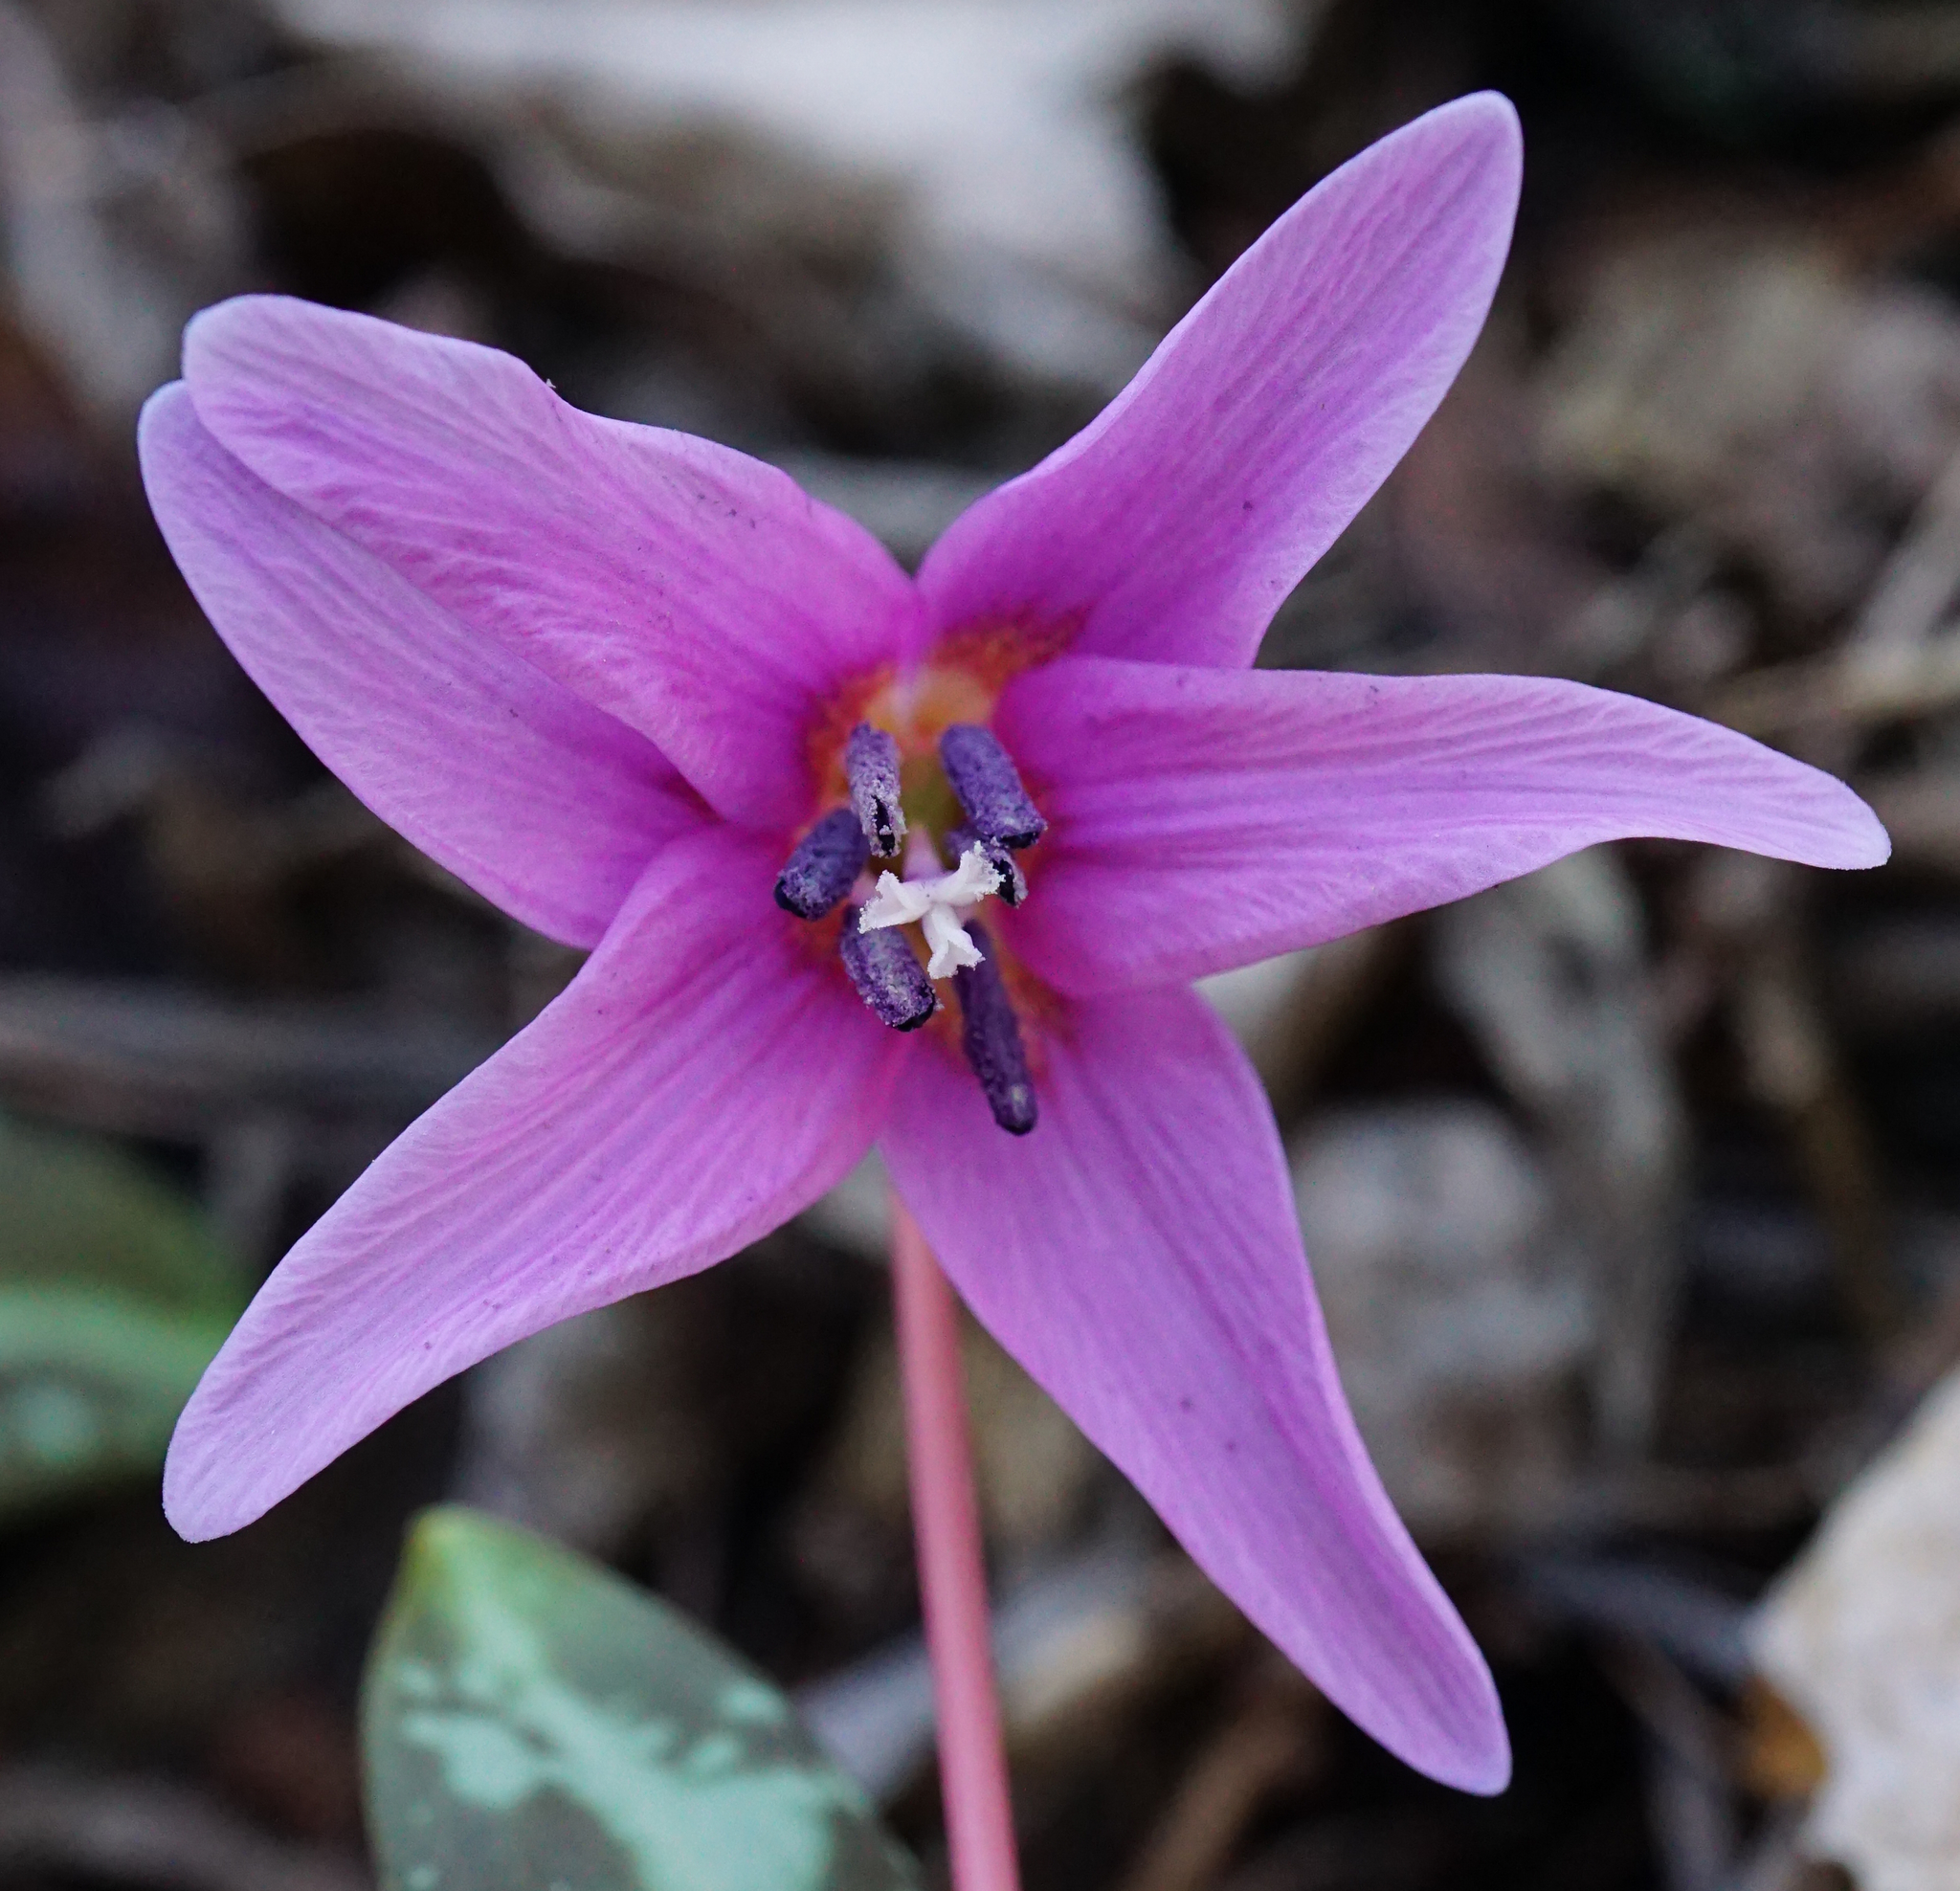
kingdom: Plantae
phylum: Tracheophyta
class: Liliopsida
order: Liliales
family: Liliaceae
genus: Erythronium
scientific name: Erythronium dens-canis
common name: Dog's-tooth-violet
